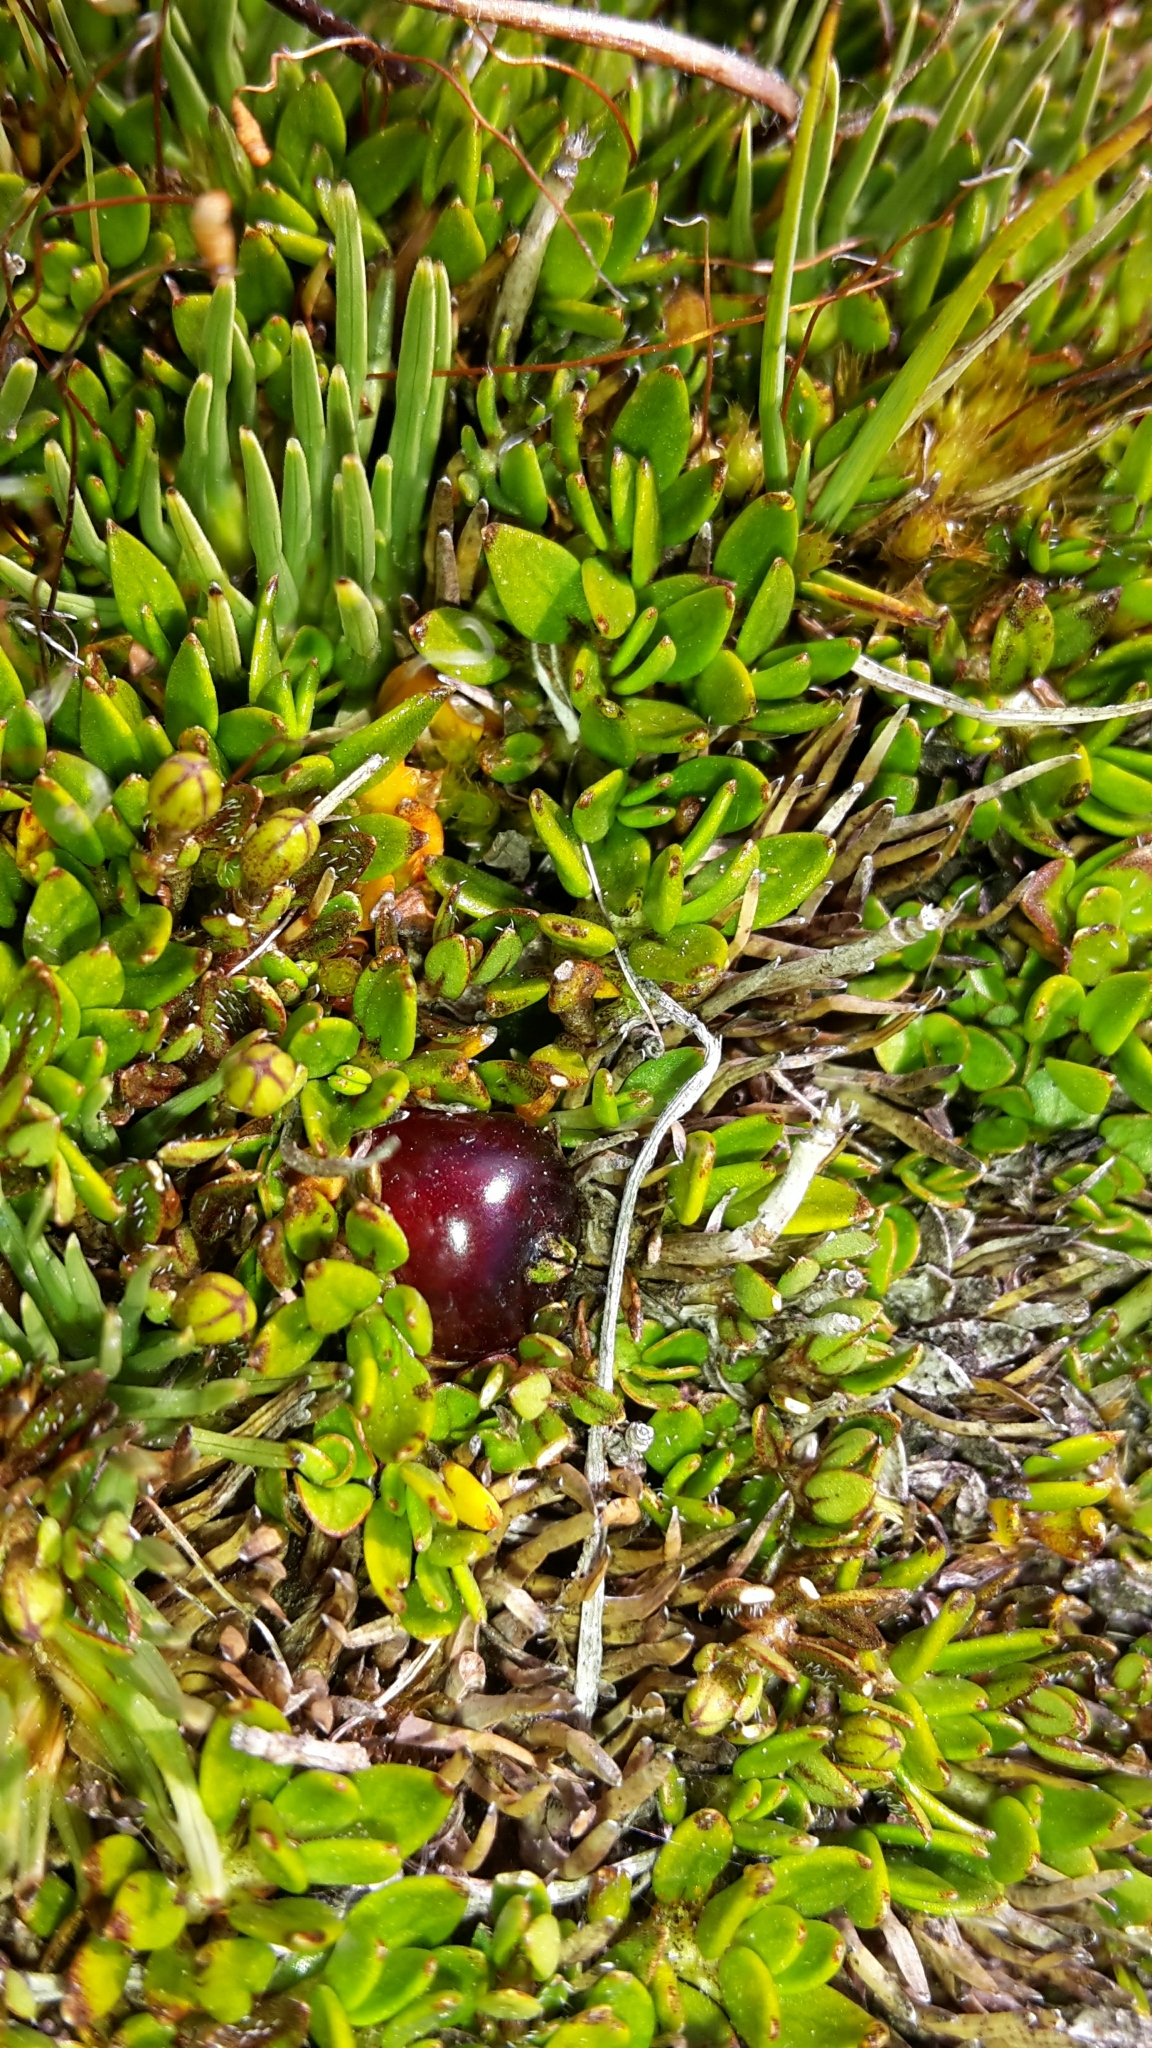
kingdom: Plantae
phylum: Tracheophyta
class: Magnoliopsida
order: Gentianales
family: Rubiaceae
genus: Coprosma
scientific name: Coprosma atropurpurea
